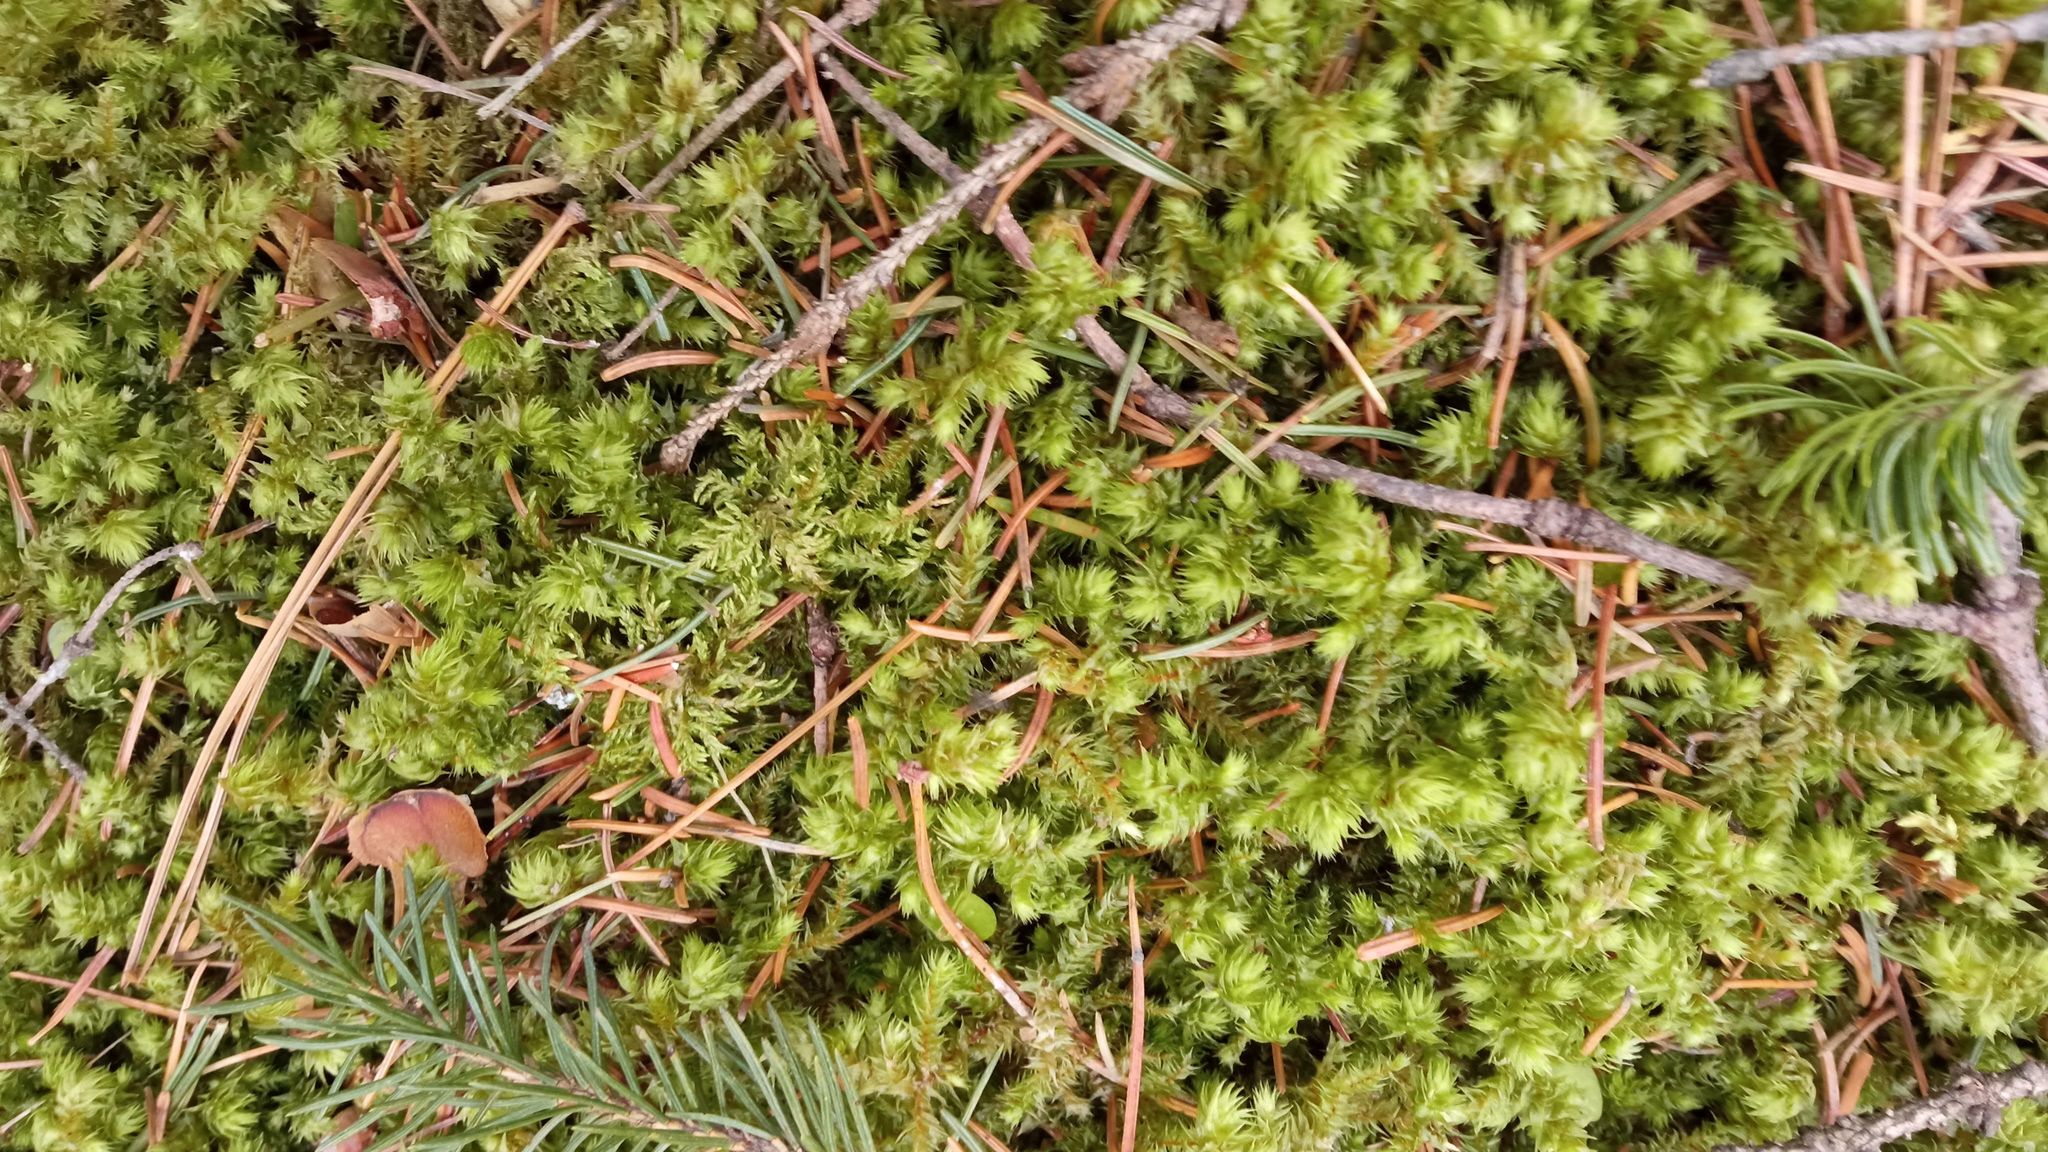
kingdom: Plantae
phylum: Bryophyta
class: Bryopsida
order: Hypnales
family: Hylocomiaceae
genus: Hylocomiadelphus
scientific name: Hylocomiadelphus triquetrus
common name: Rough goose neck moss
